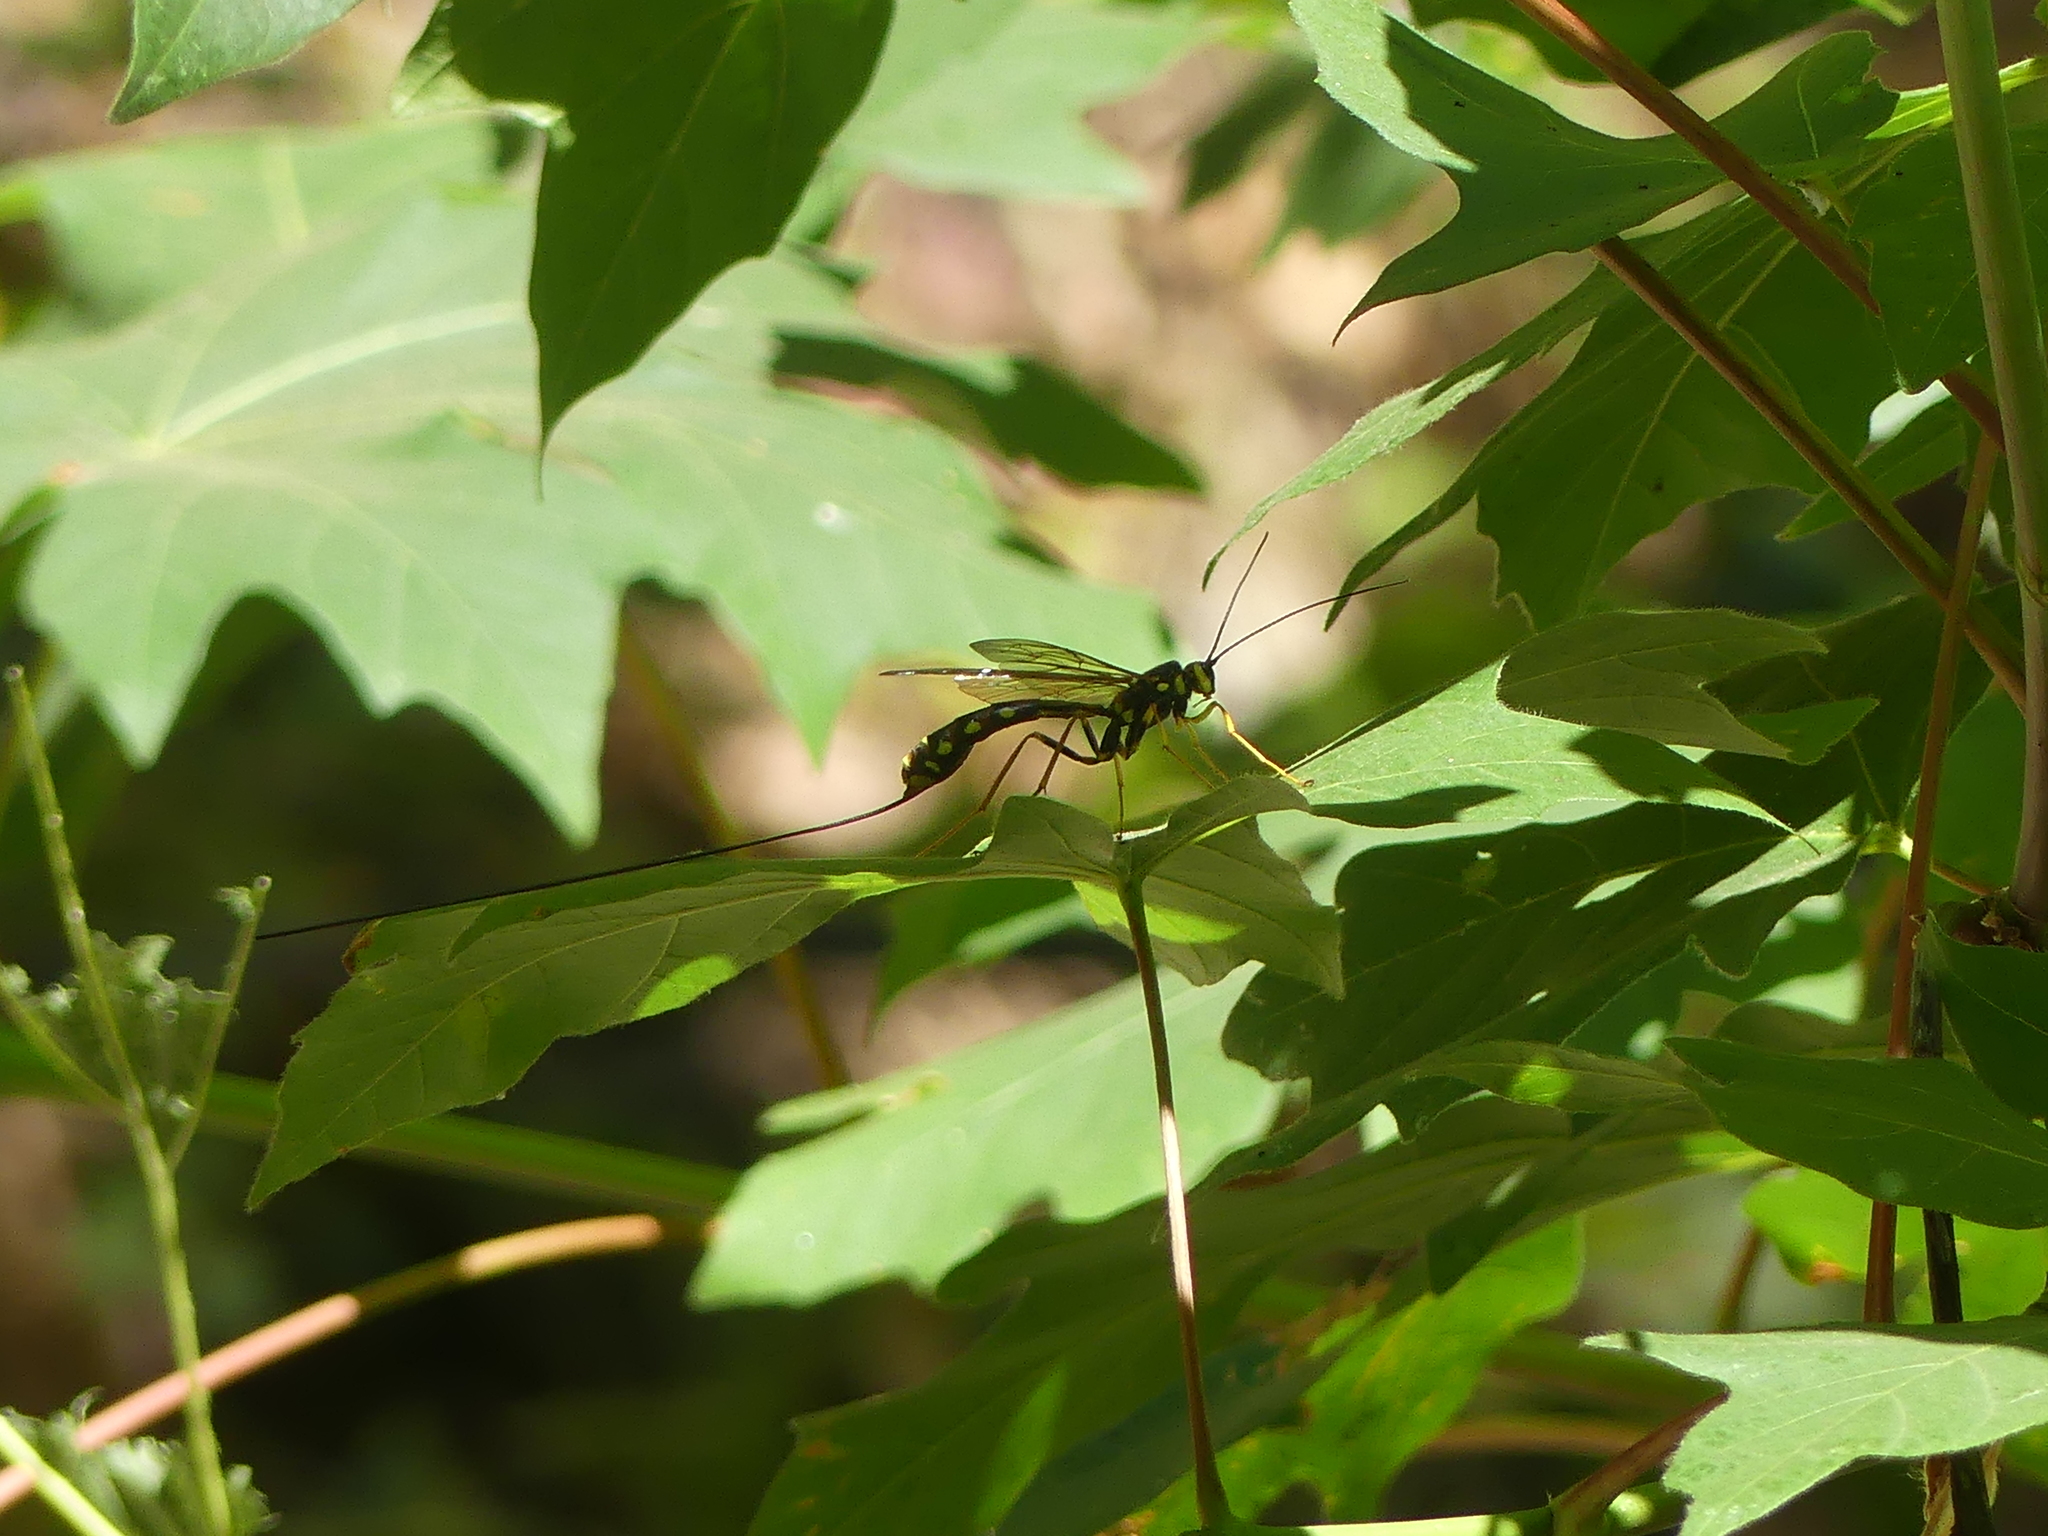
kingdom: Animalia
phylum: Arthropoda
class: Insecta
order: Hymenoptera
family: Ichneumonidae
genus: Megarhyssa
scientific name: Megarhyssa nortoni
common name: Norton's giant ichneumonid wasp
